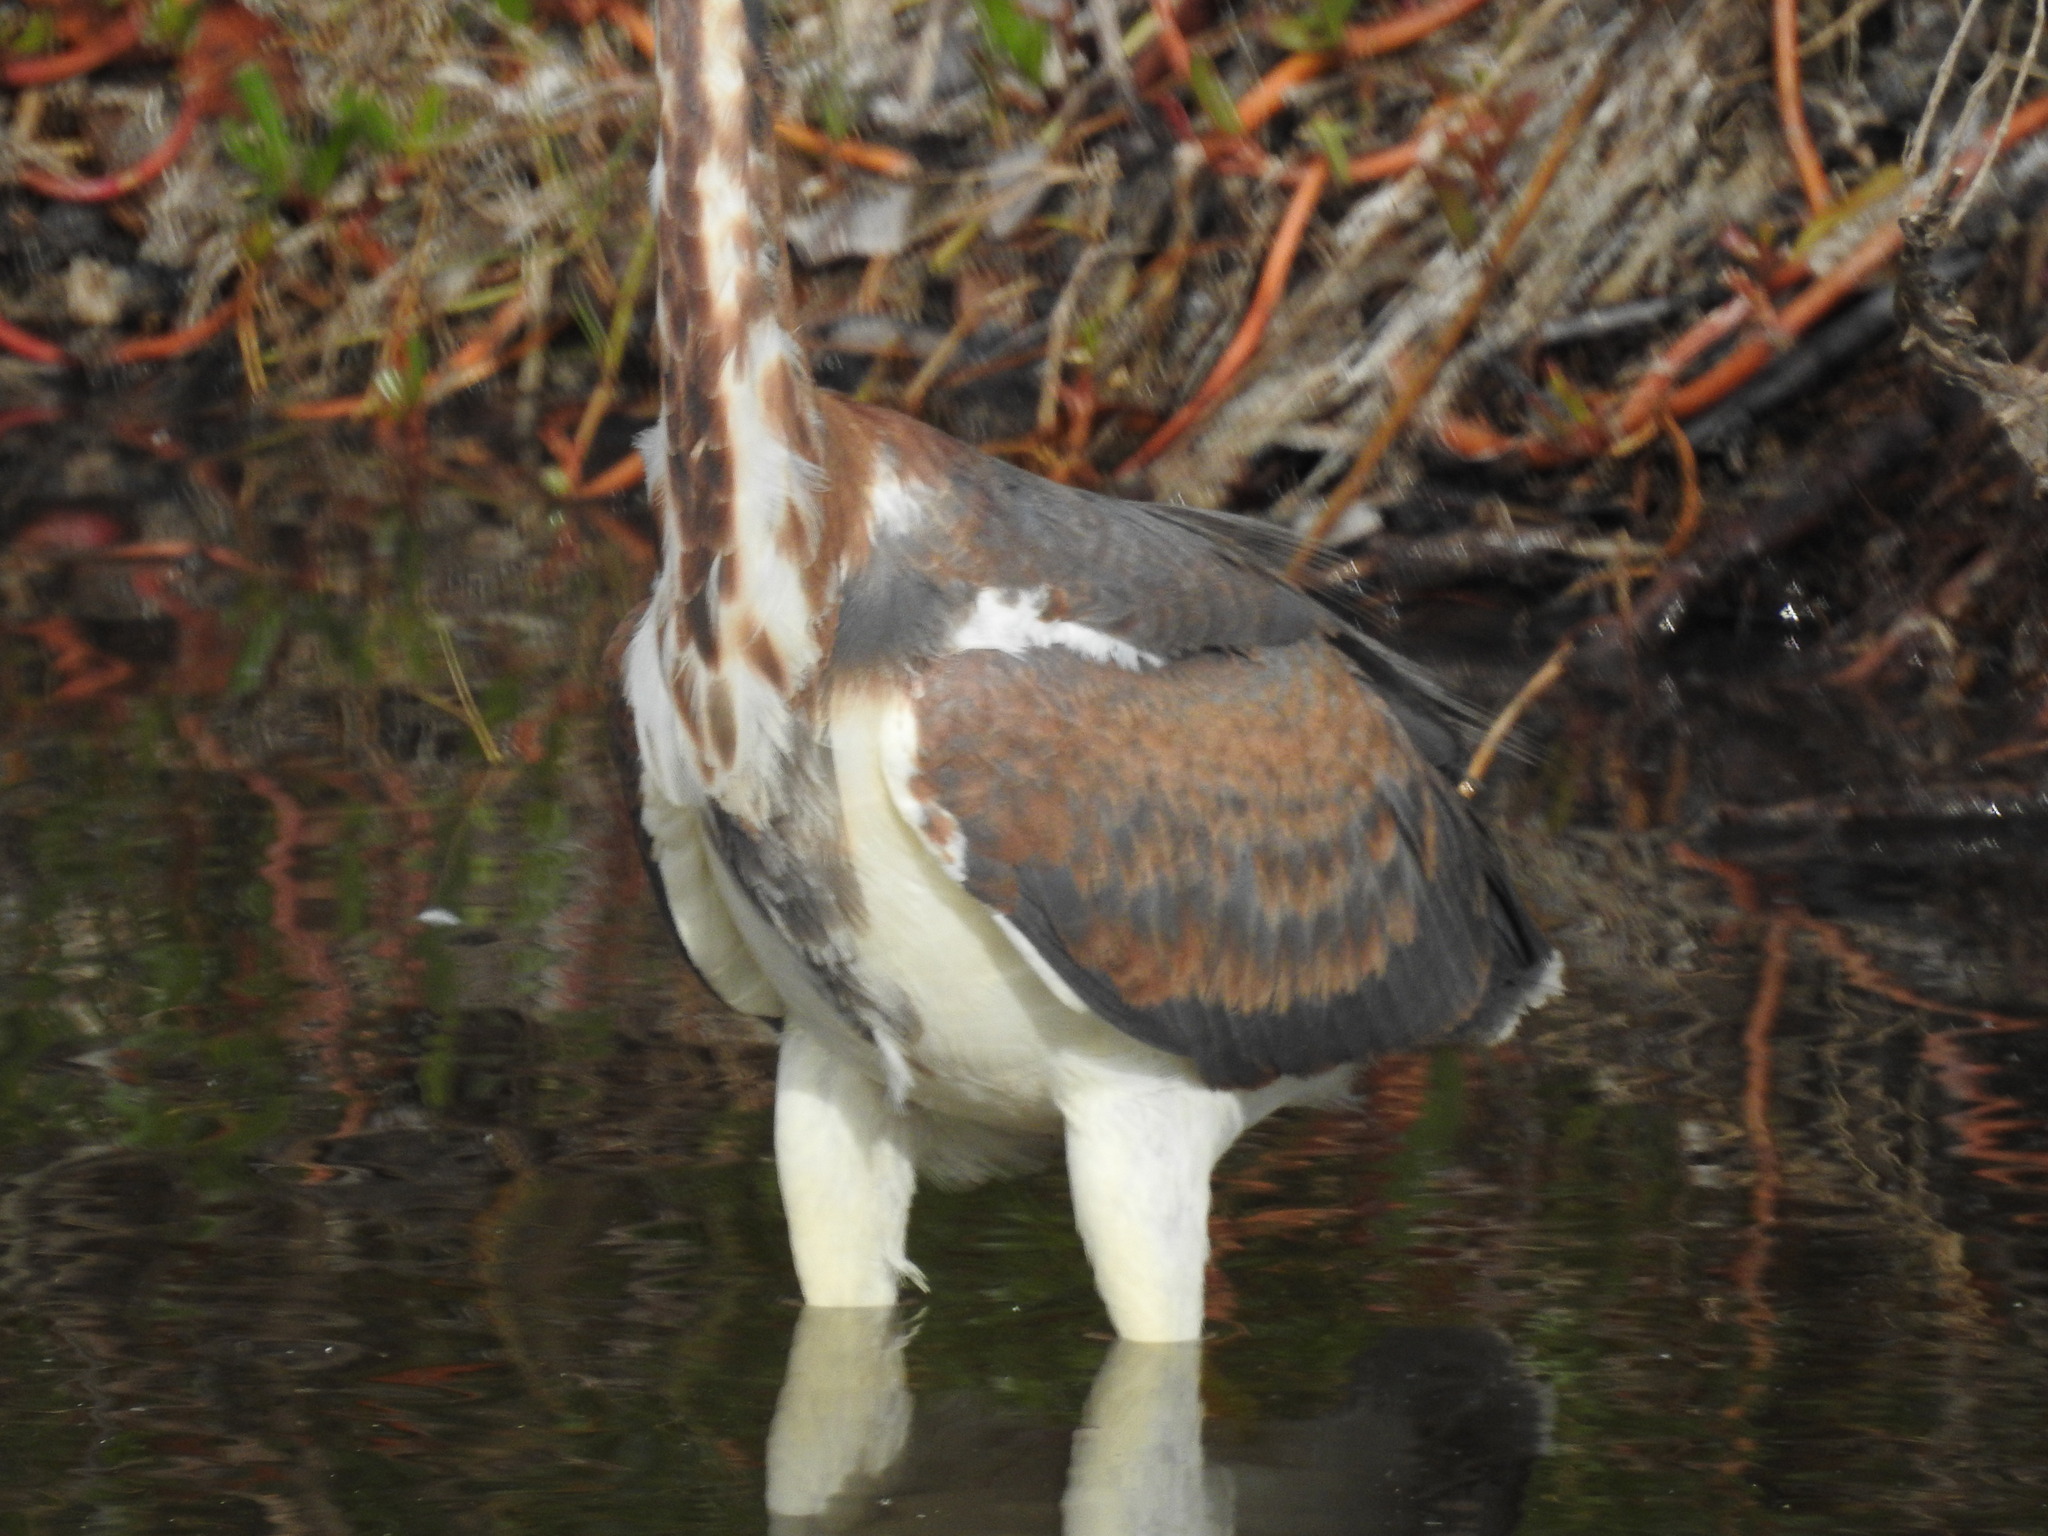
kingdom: Animalia
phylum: Chordata
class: Aves
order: Pelecaniformes
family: Ardeidae
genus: Egretta
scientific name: Egretta tricolor
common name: Tricolored heron
